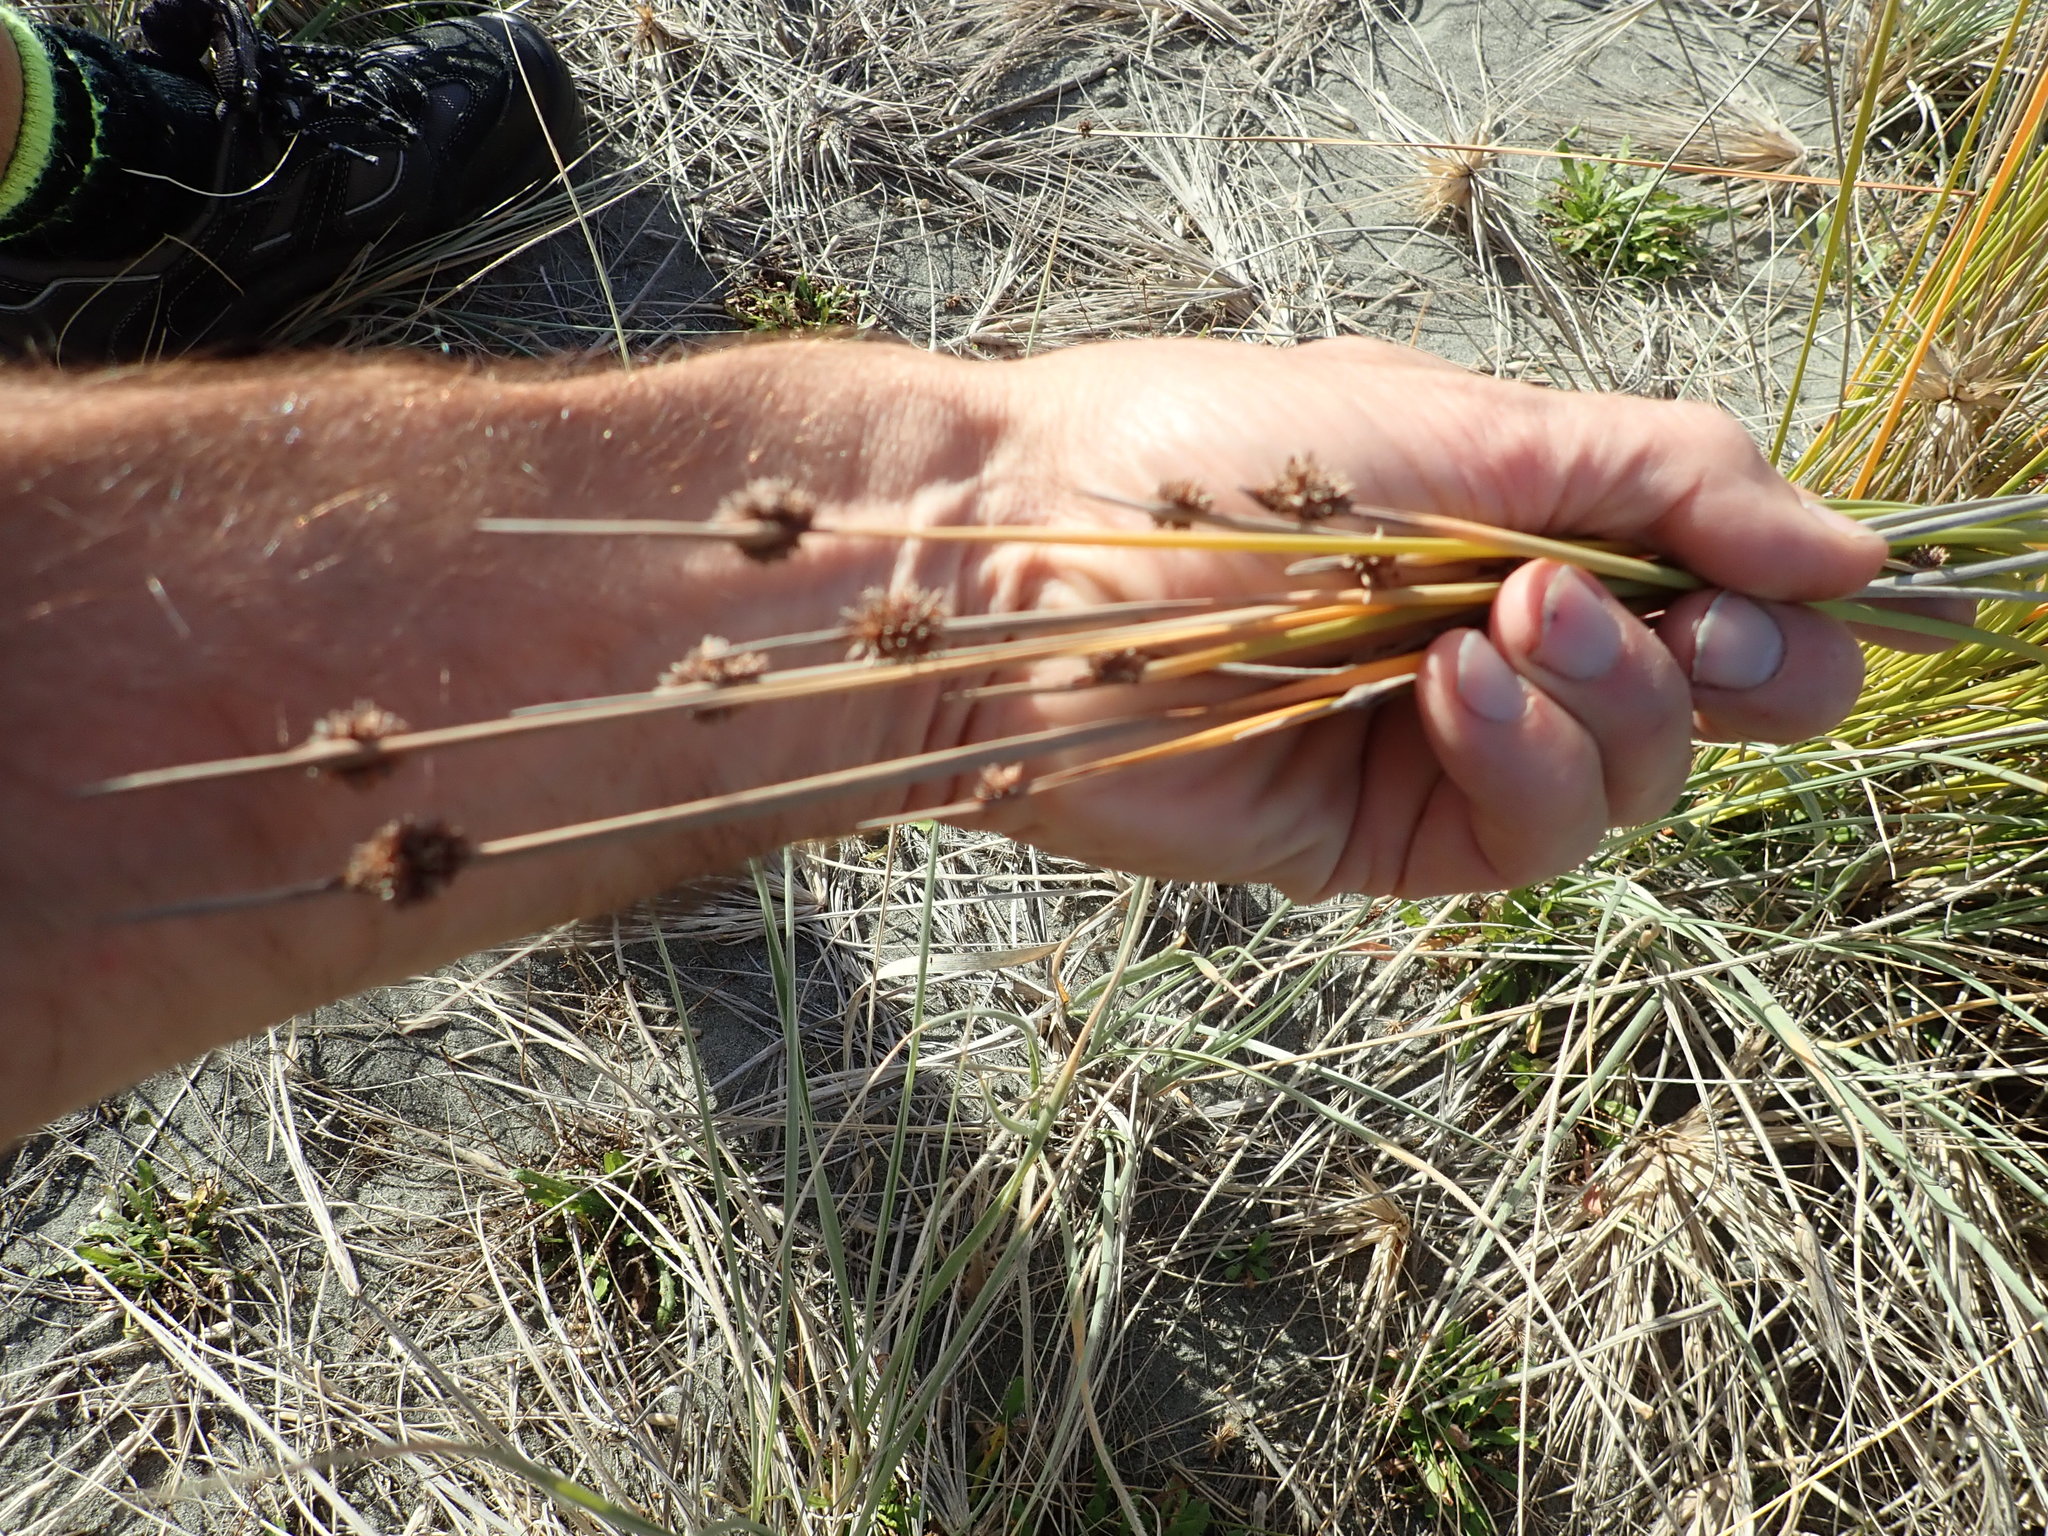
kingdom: Plantae
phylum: Tracheophyta
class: Liliopsida
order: Poales
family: Cyperaceae
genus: Ficinia
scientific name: Ficinia nodosa
